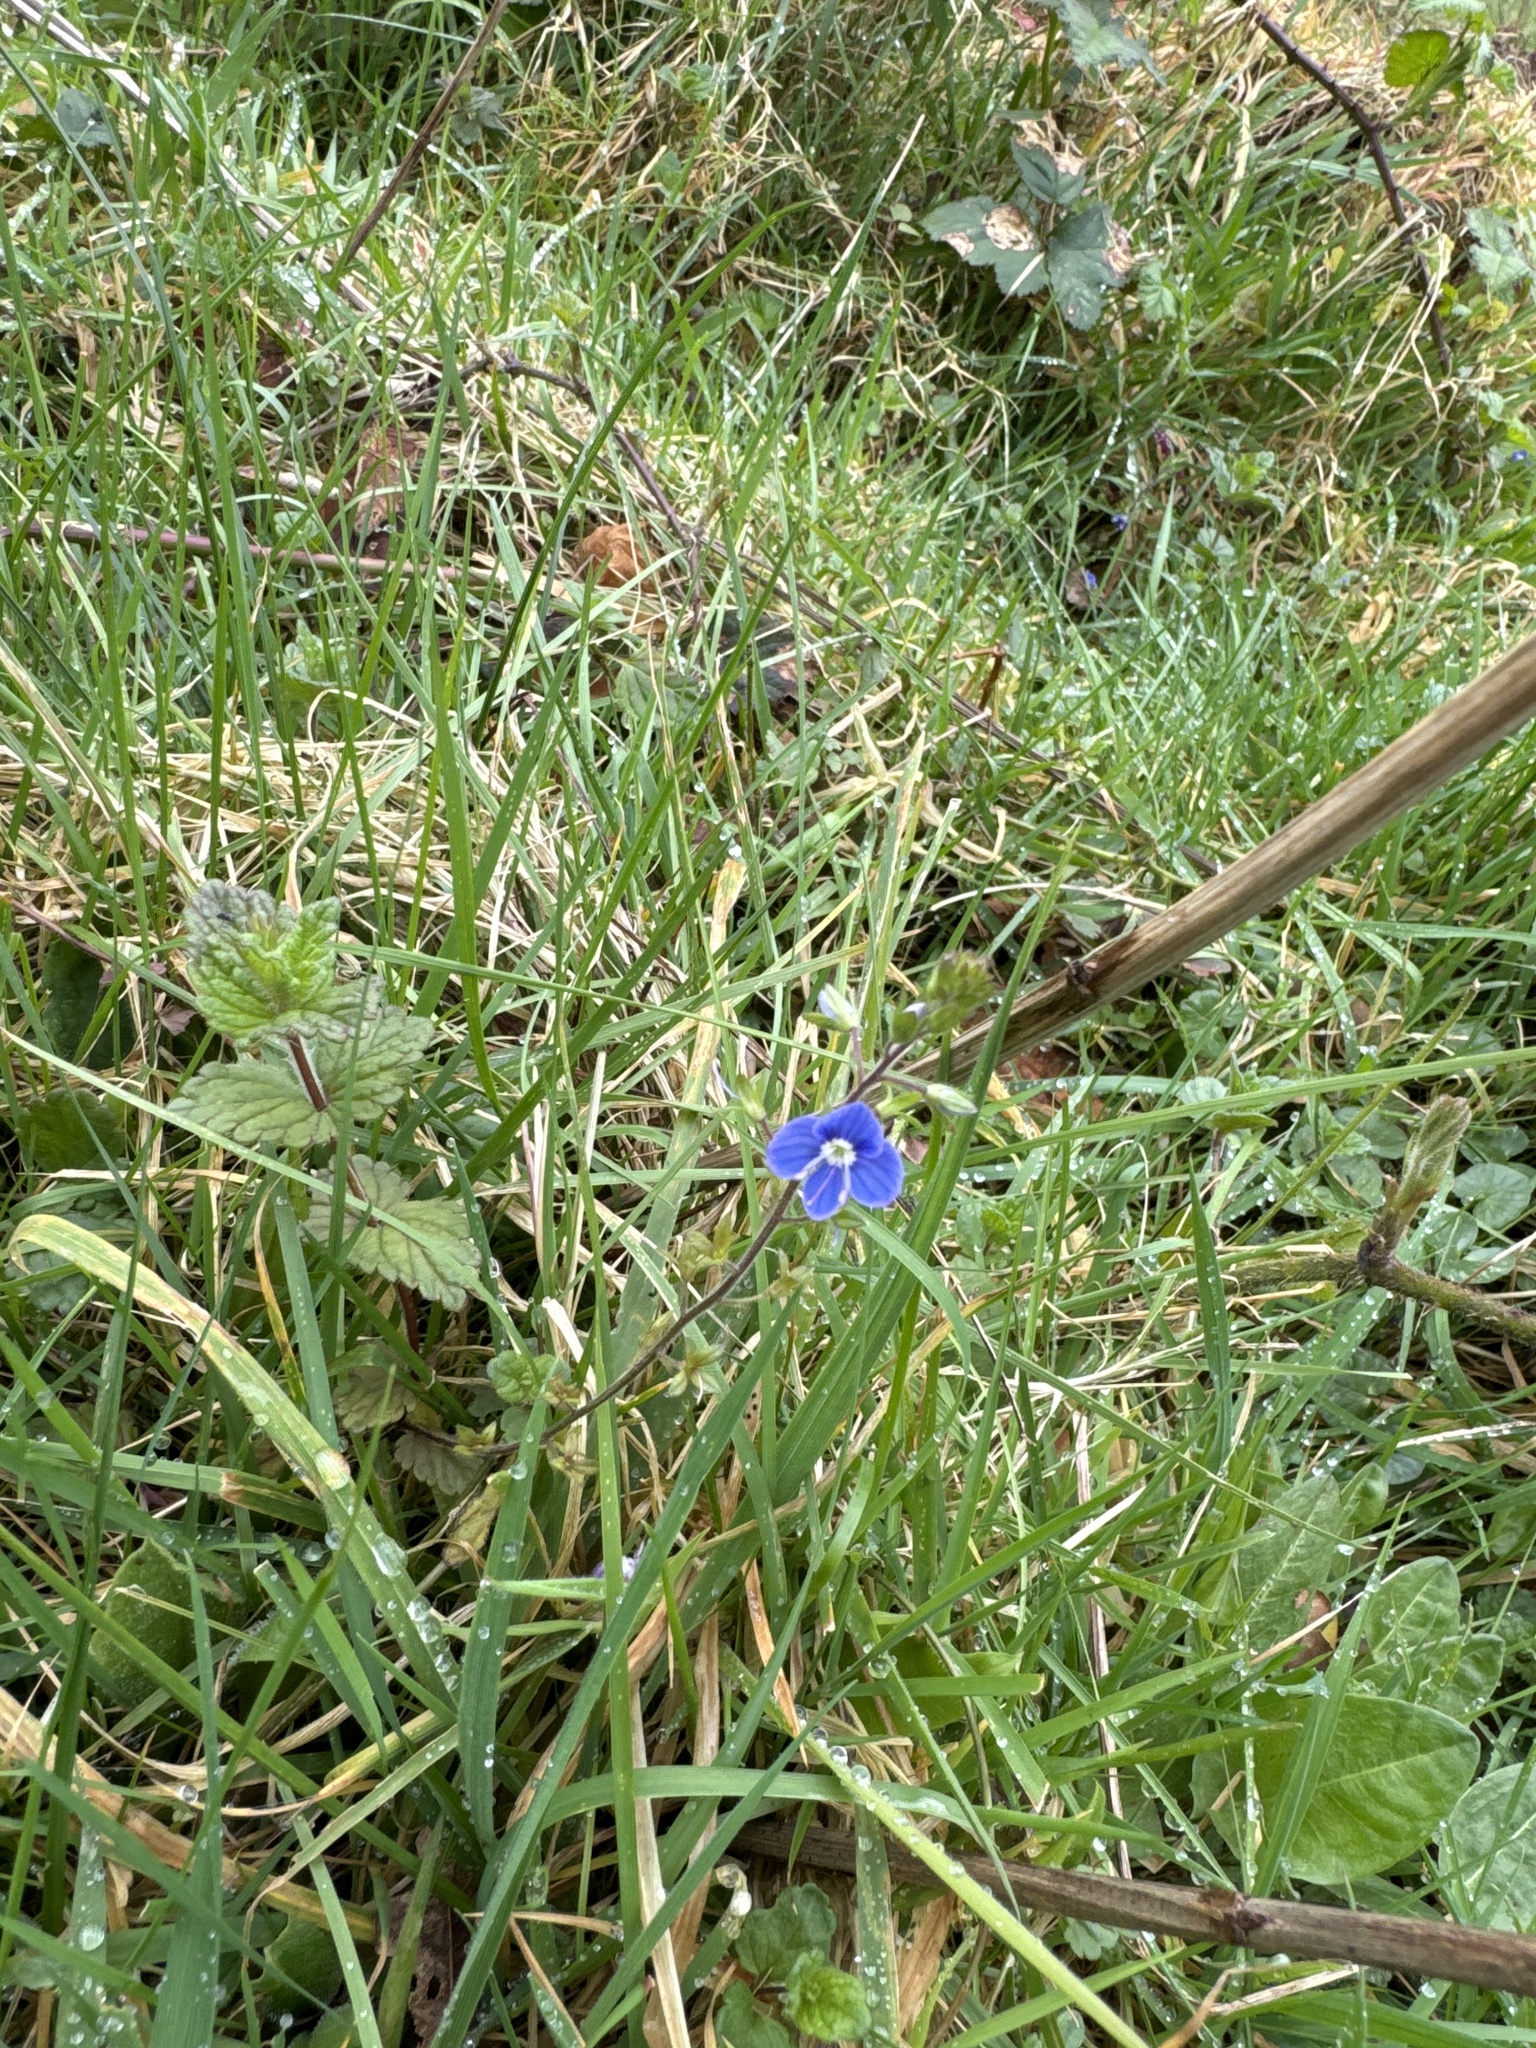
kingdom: Plantae
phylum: Tracheophyta
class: Magnoliopsida
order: Lamiales
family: Plantaginaceae
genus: Veronica
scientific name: Veronica chamaedrys
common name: Germander speedwell
